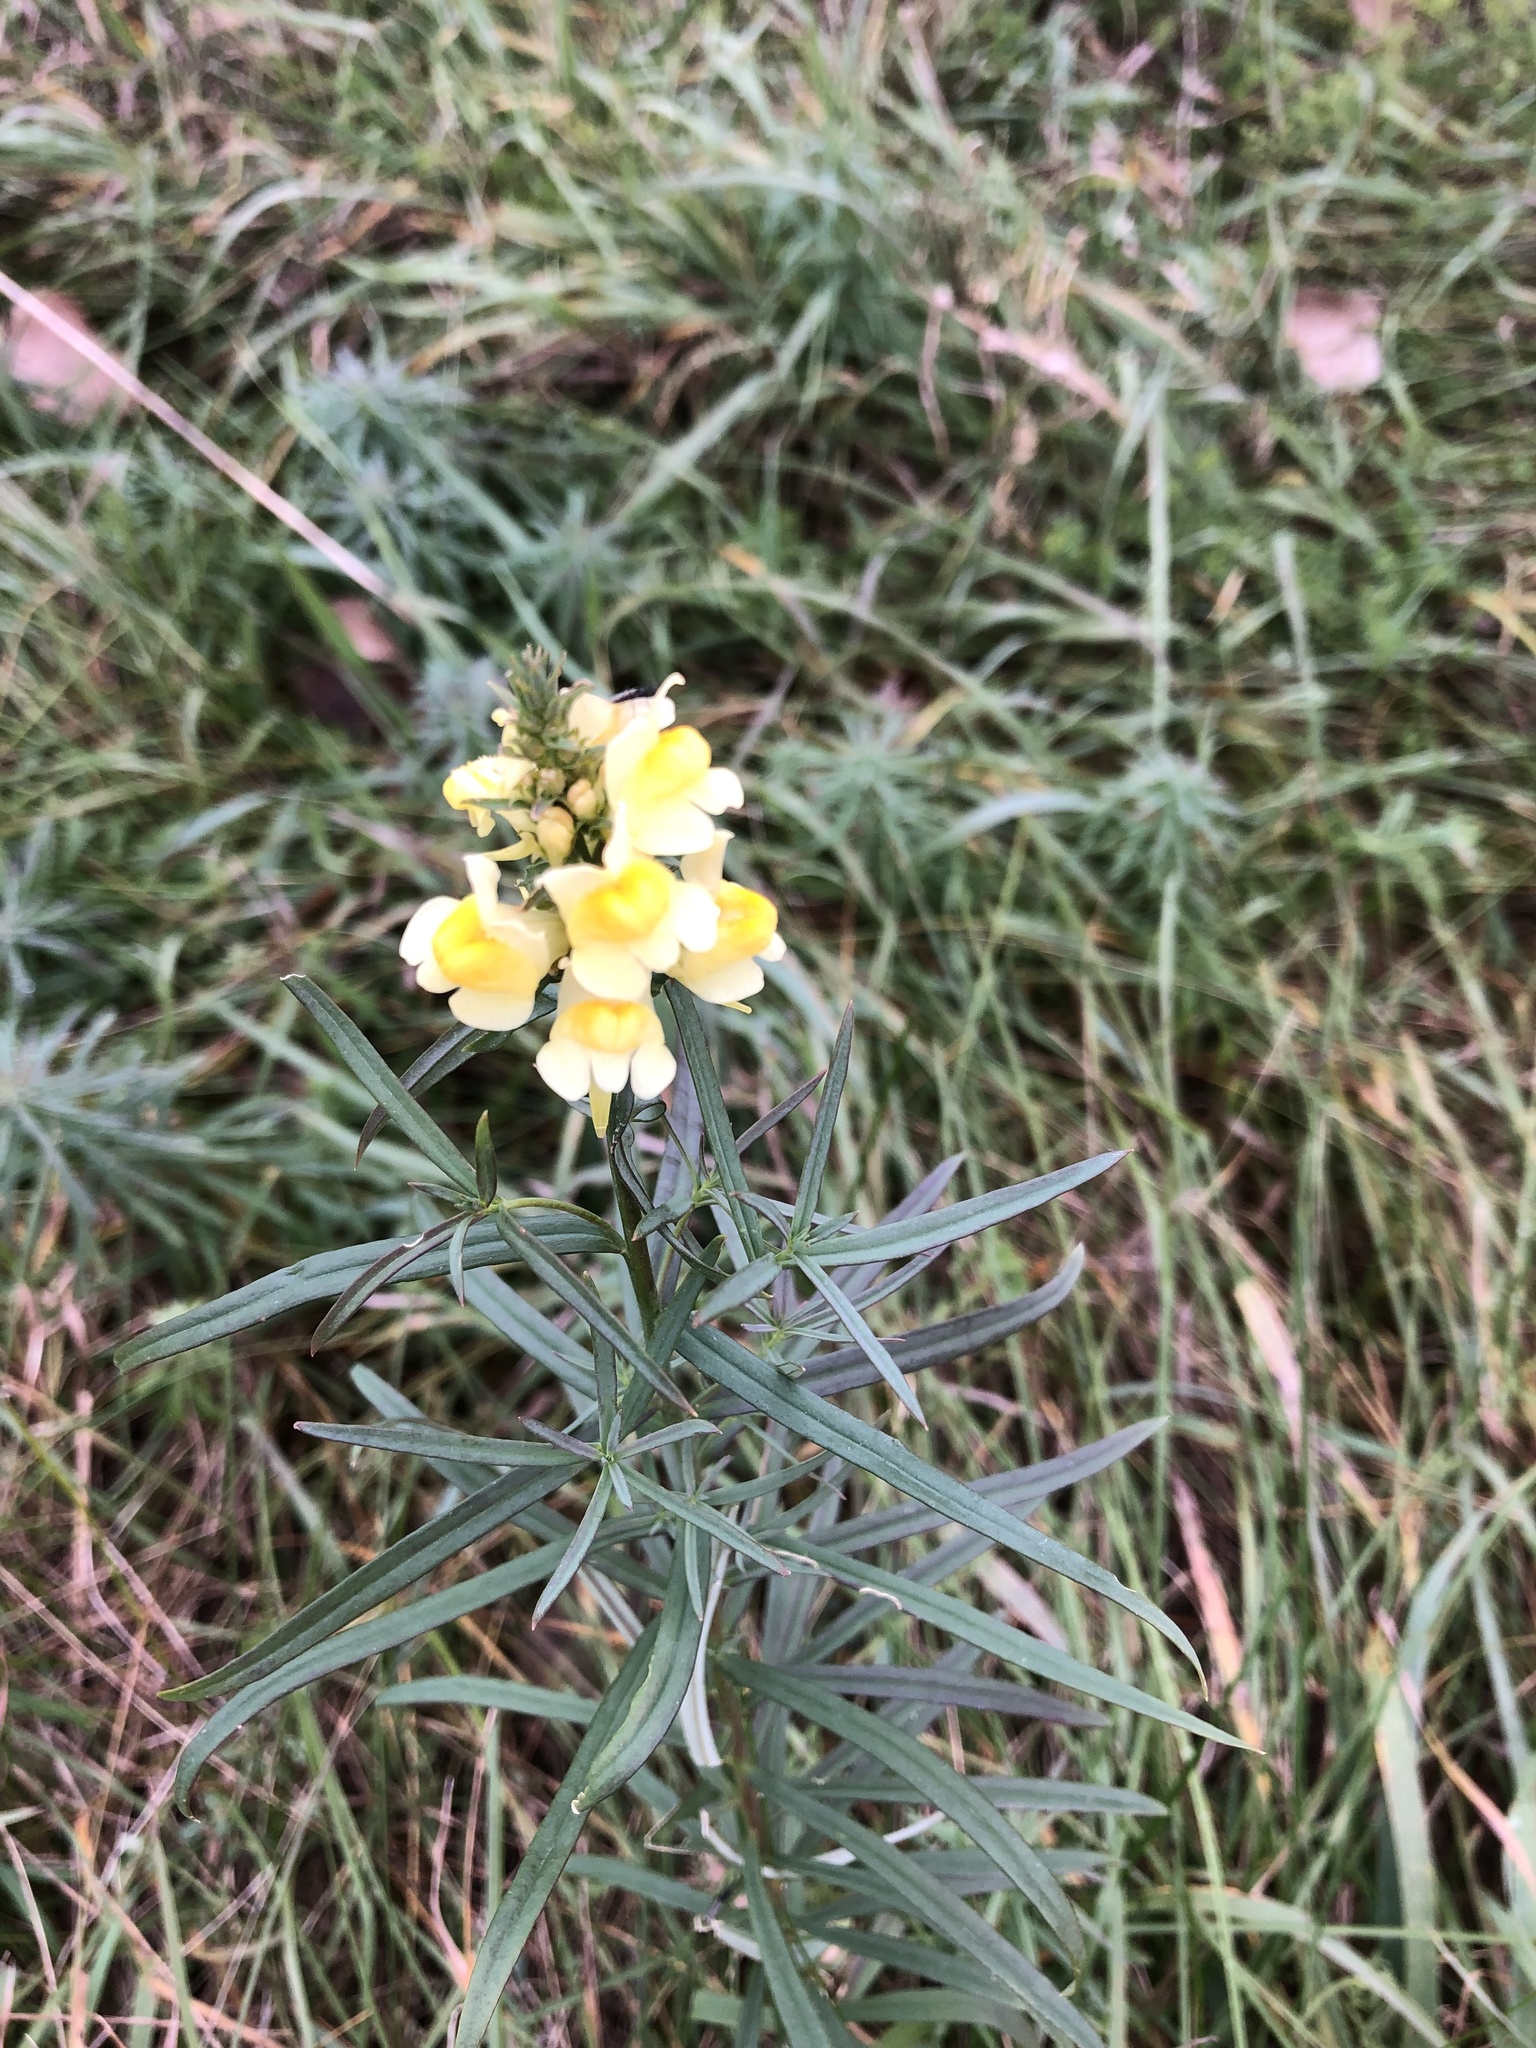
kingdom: Plantae
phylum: Tracheophyta
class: Magnoliopsida
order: Lamiales
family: Plantaginaceae
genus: Linaria
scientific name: Linaria vulgaris
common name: Butter and eggs
